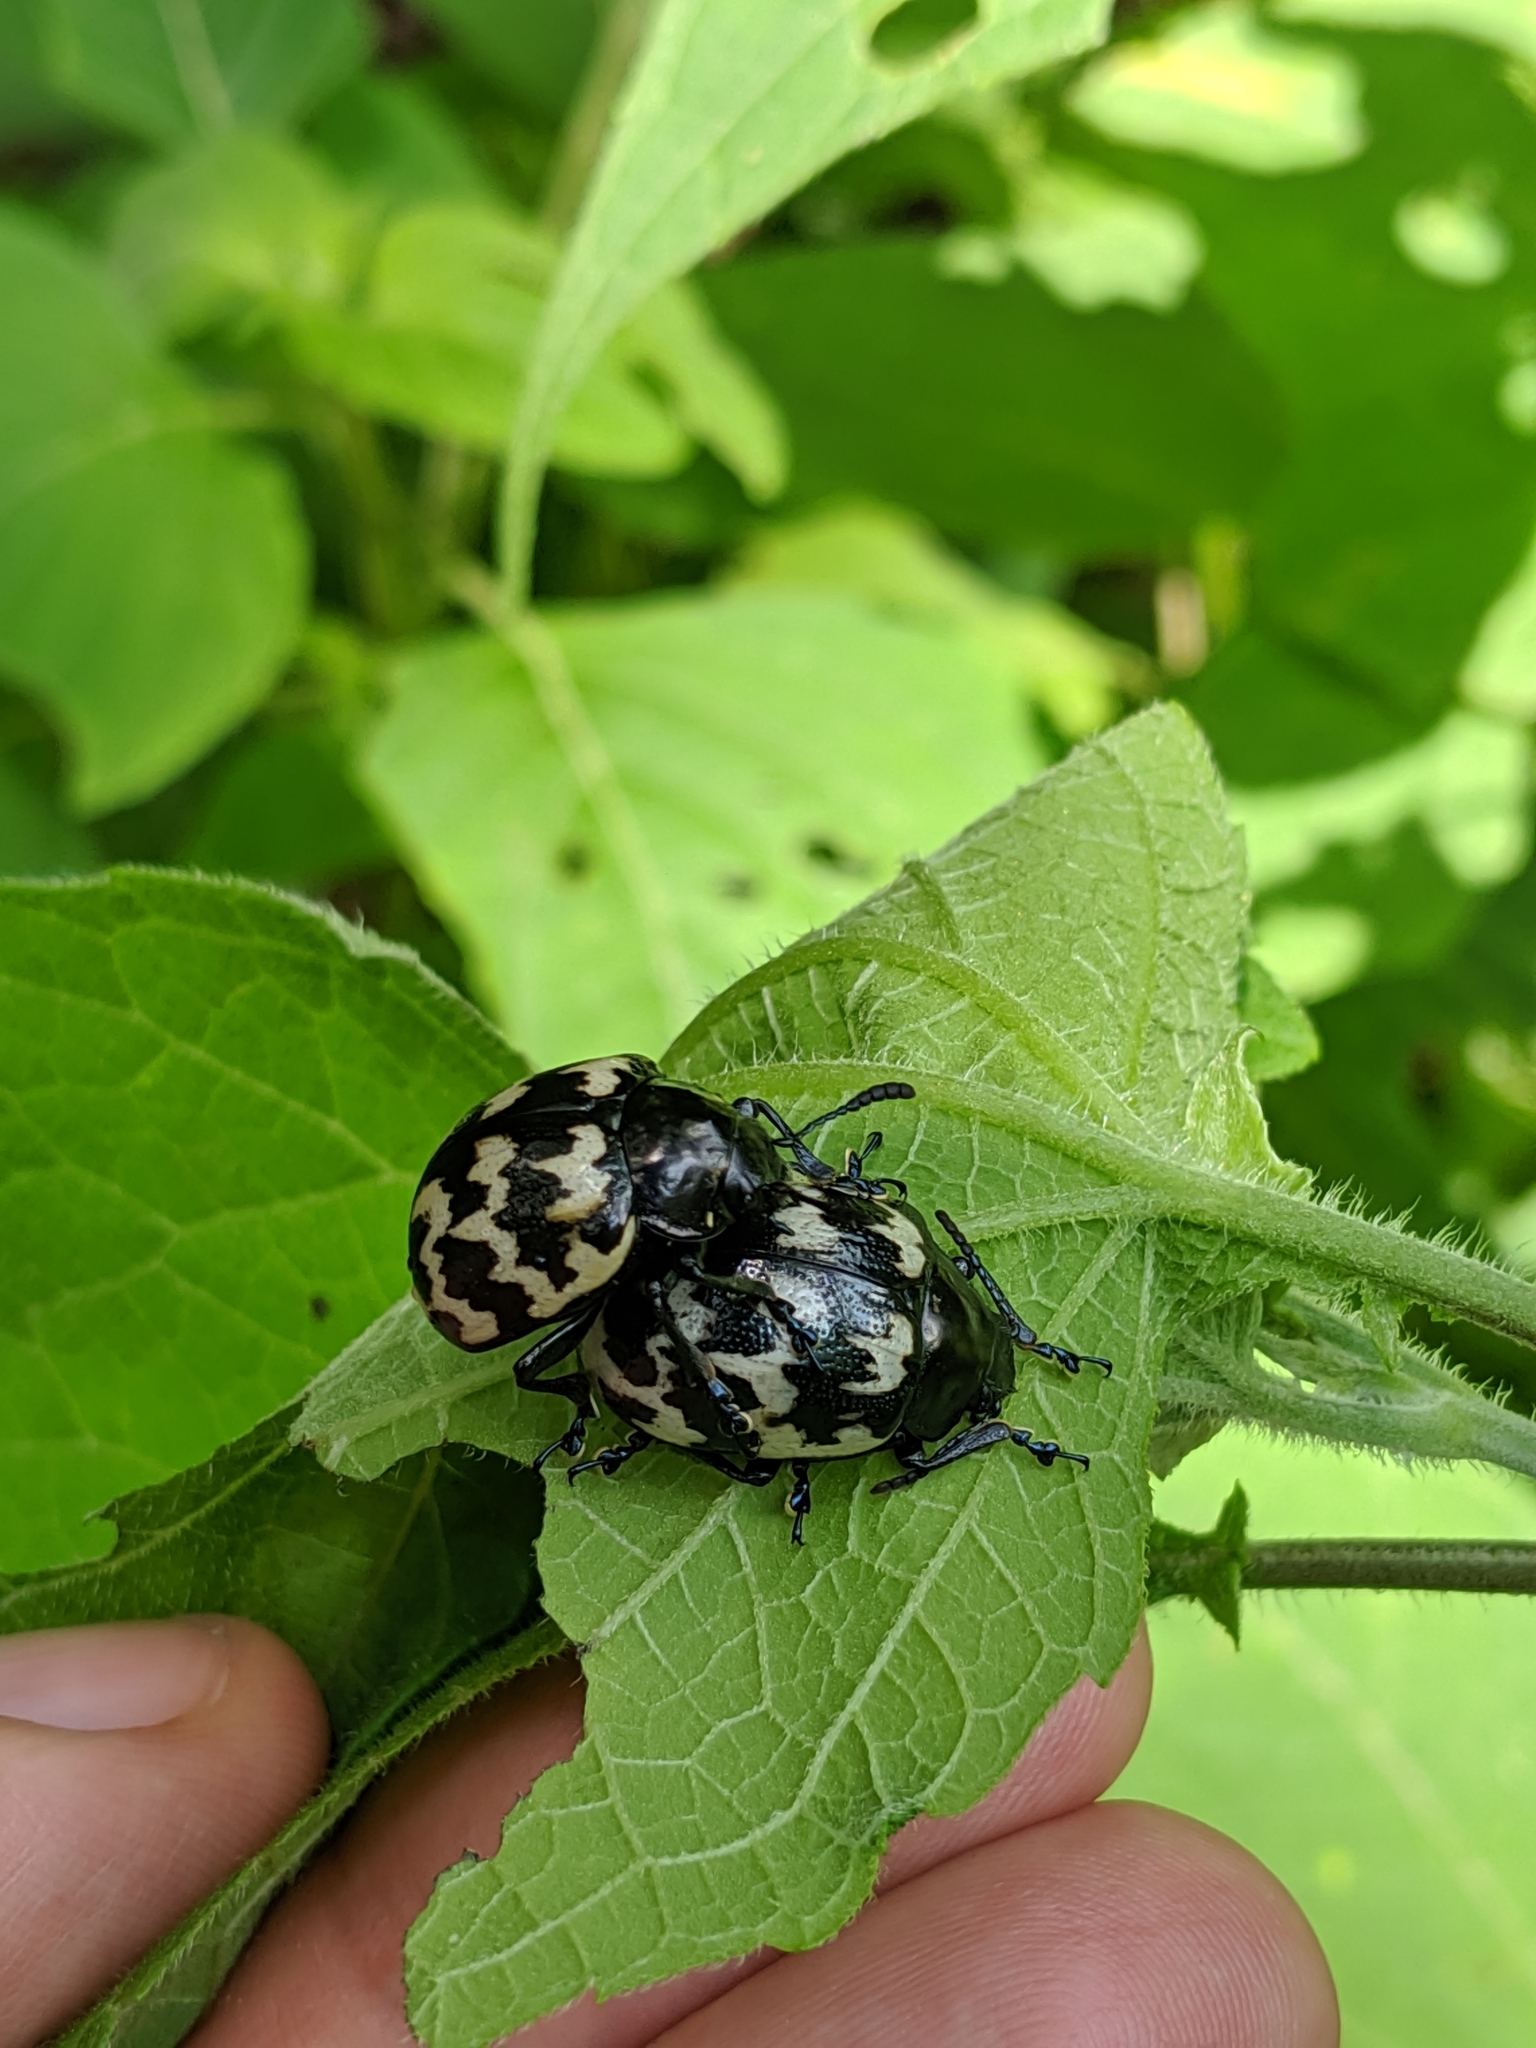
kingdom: Animalia
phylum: Arthropoda
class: Insecta
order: Coleoptera
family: Chrysomelidae
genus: Leptinotarsa
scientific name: Leptinotarsa
